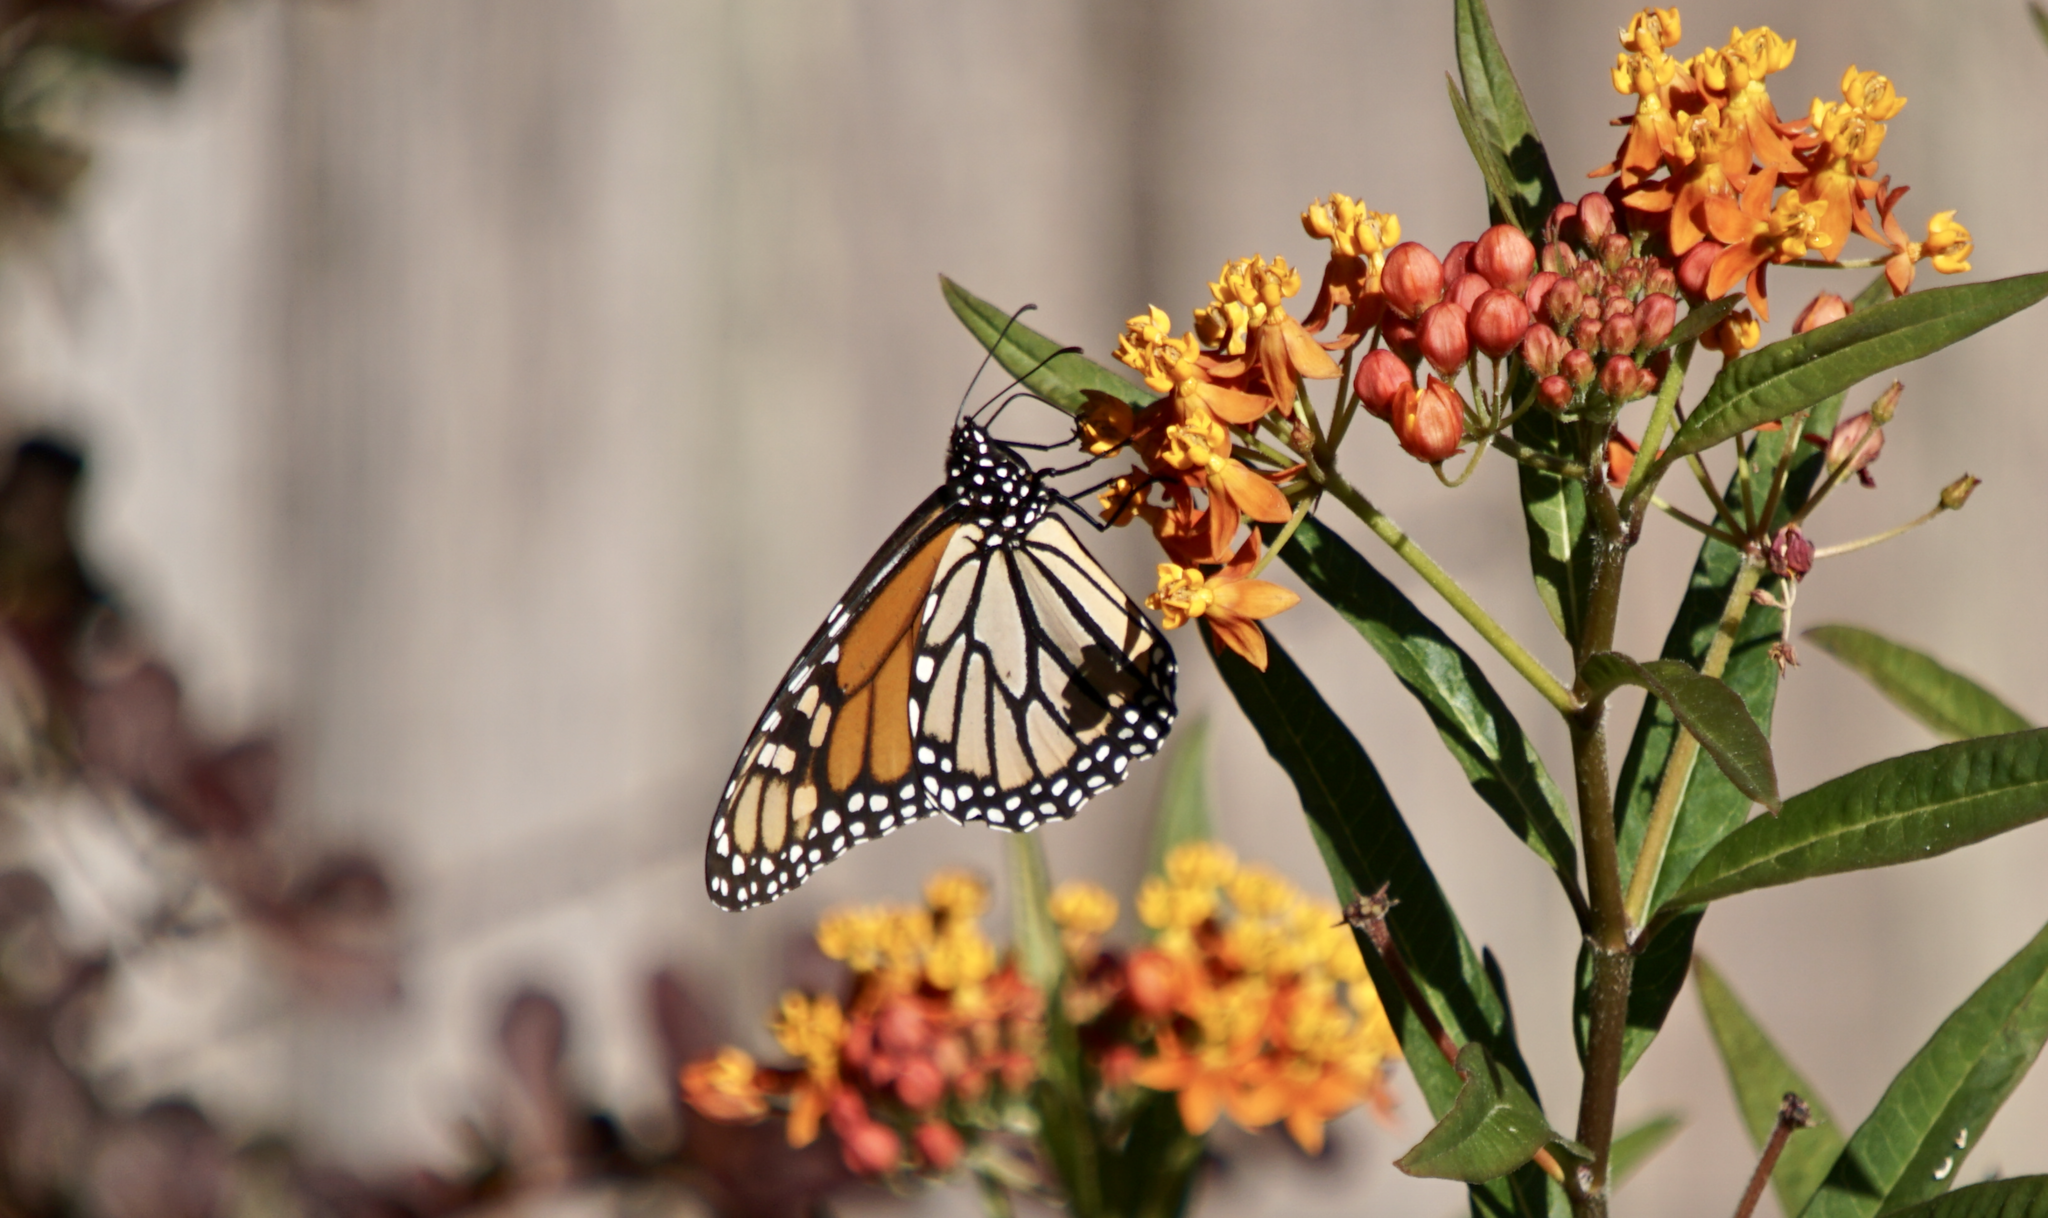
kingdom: Animalia
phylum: Arthropoda
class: Insecta
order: Lepidoptera
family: Nymphalidae
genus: Danaus
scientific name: Danaus plexippus
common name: Monarch
